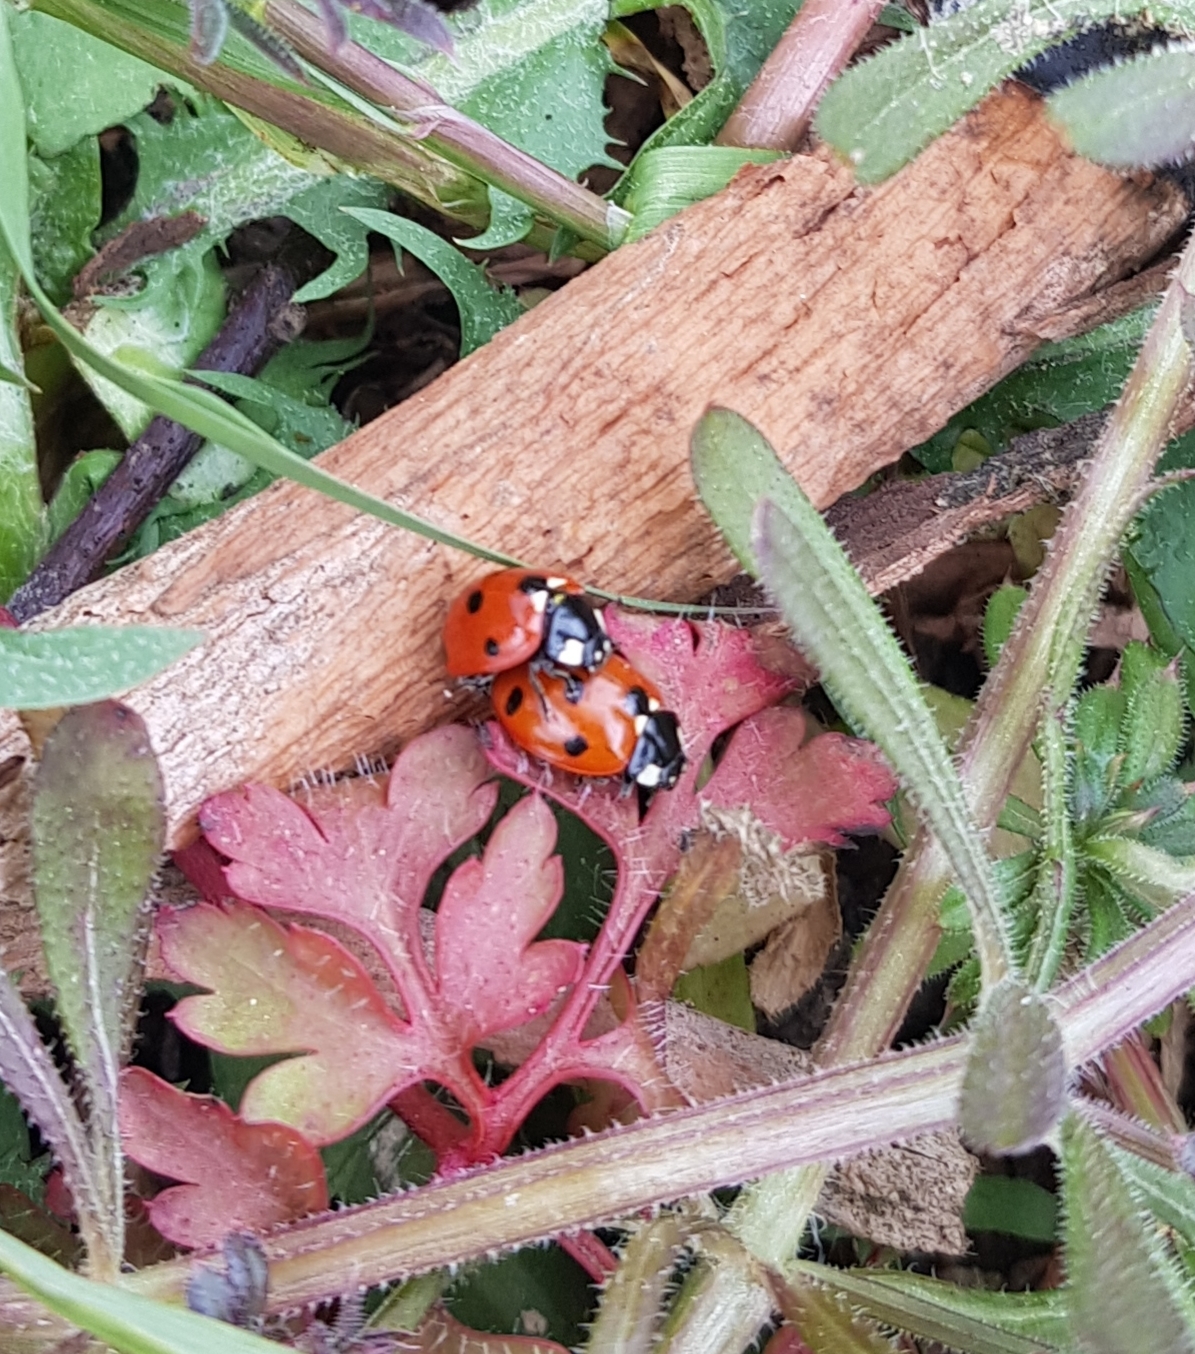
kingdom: Animalia
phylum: Arthropoda
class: Insecta
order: Coleoptera
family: Coccinellidae
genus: Coccinella
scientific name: Coccinella septempunctata
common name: Sevenspotted lady beetle
